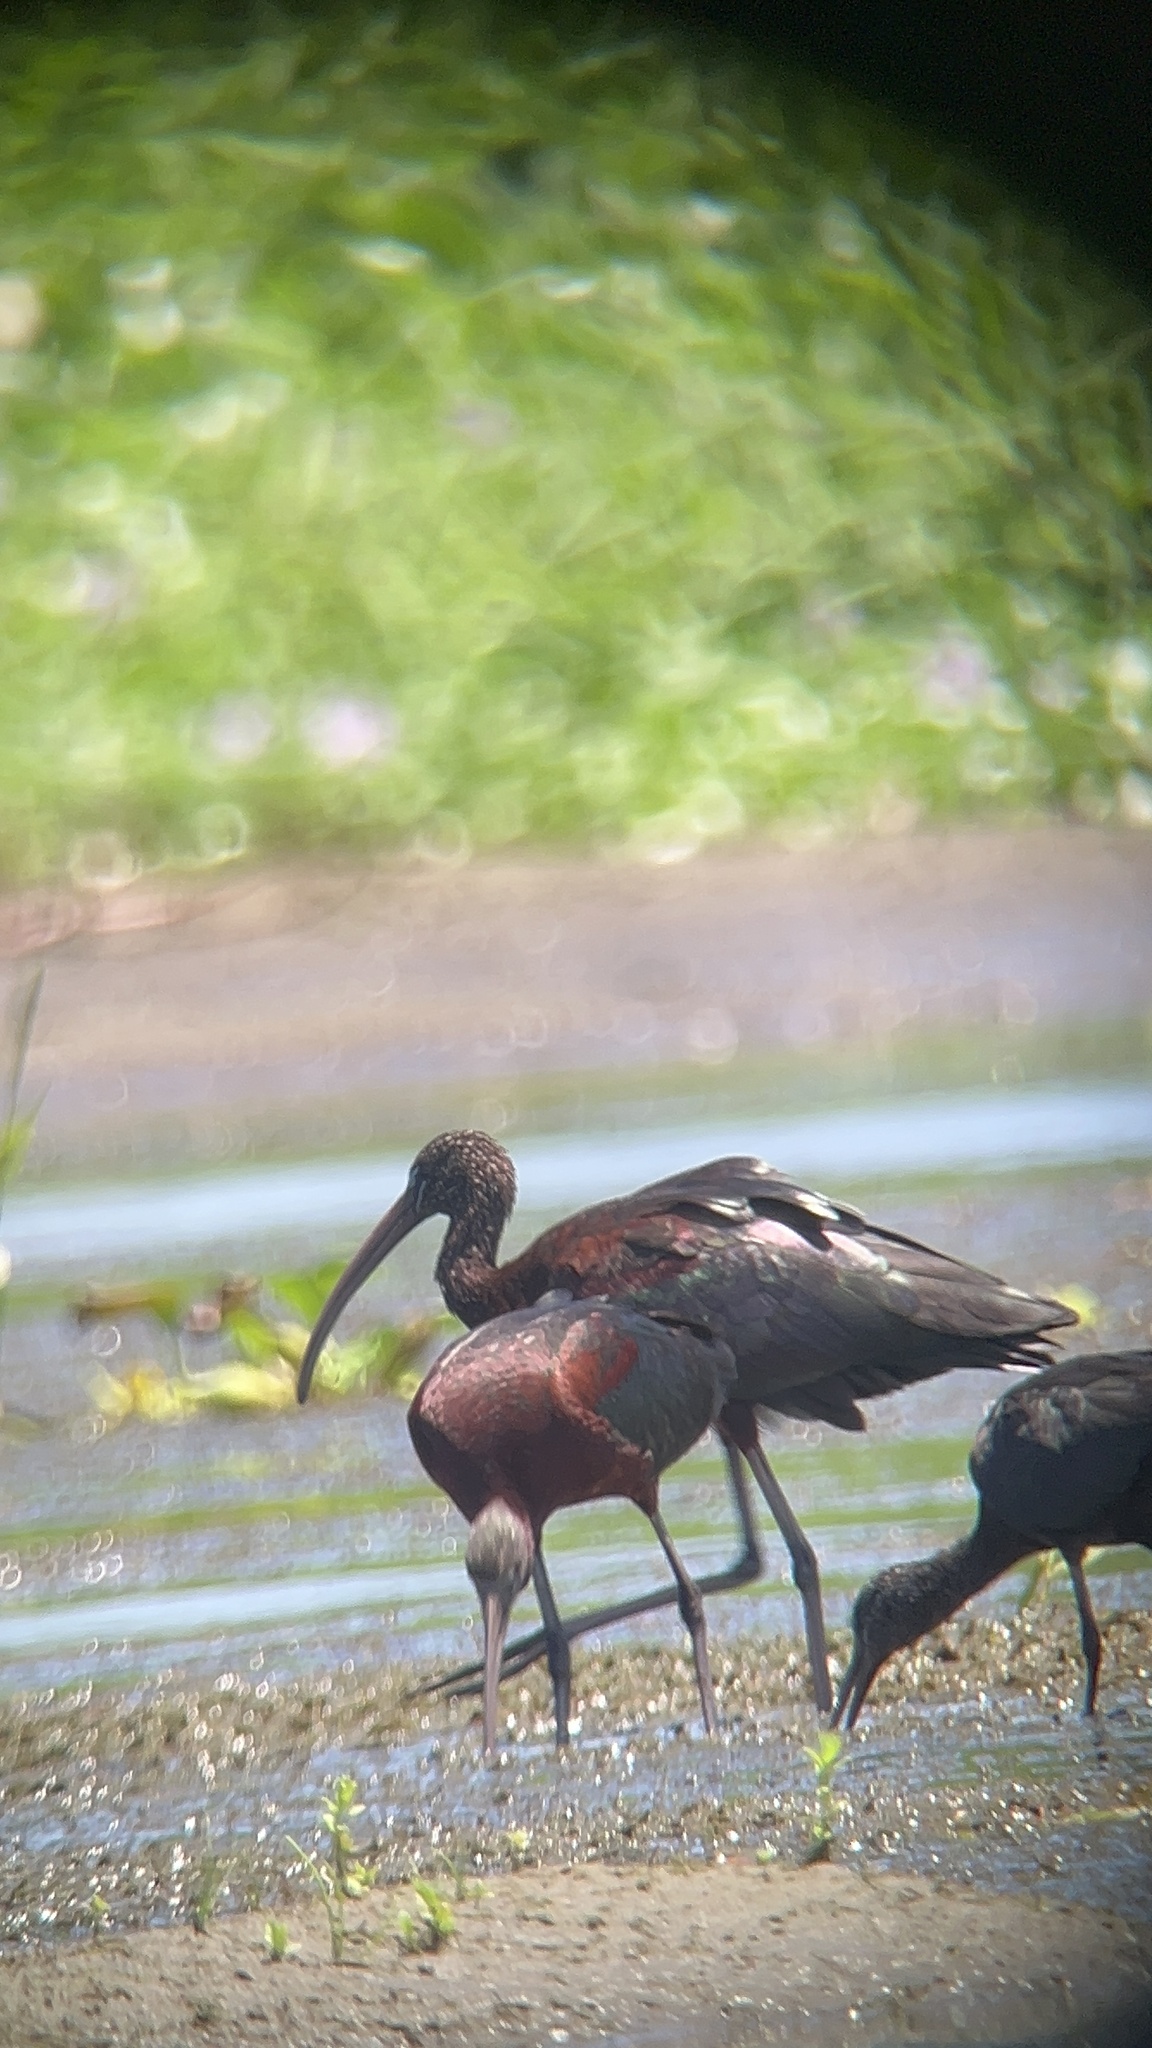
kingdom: Animalia
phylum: Chordata
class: Aves
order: Pelecaniformes
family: Threskiornithidae
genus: Plegadis
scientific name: Plegadis falcinellus
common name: Glossy ibis
